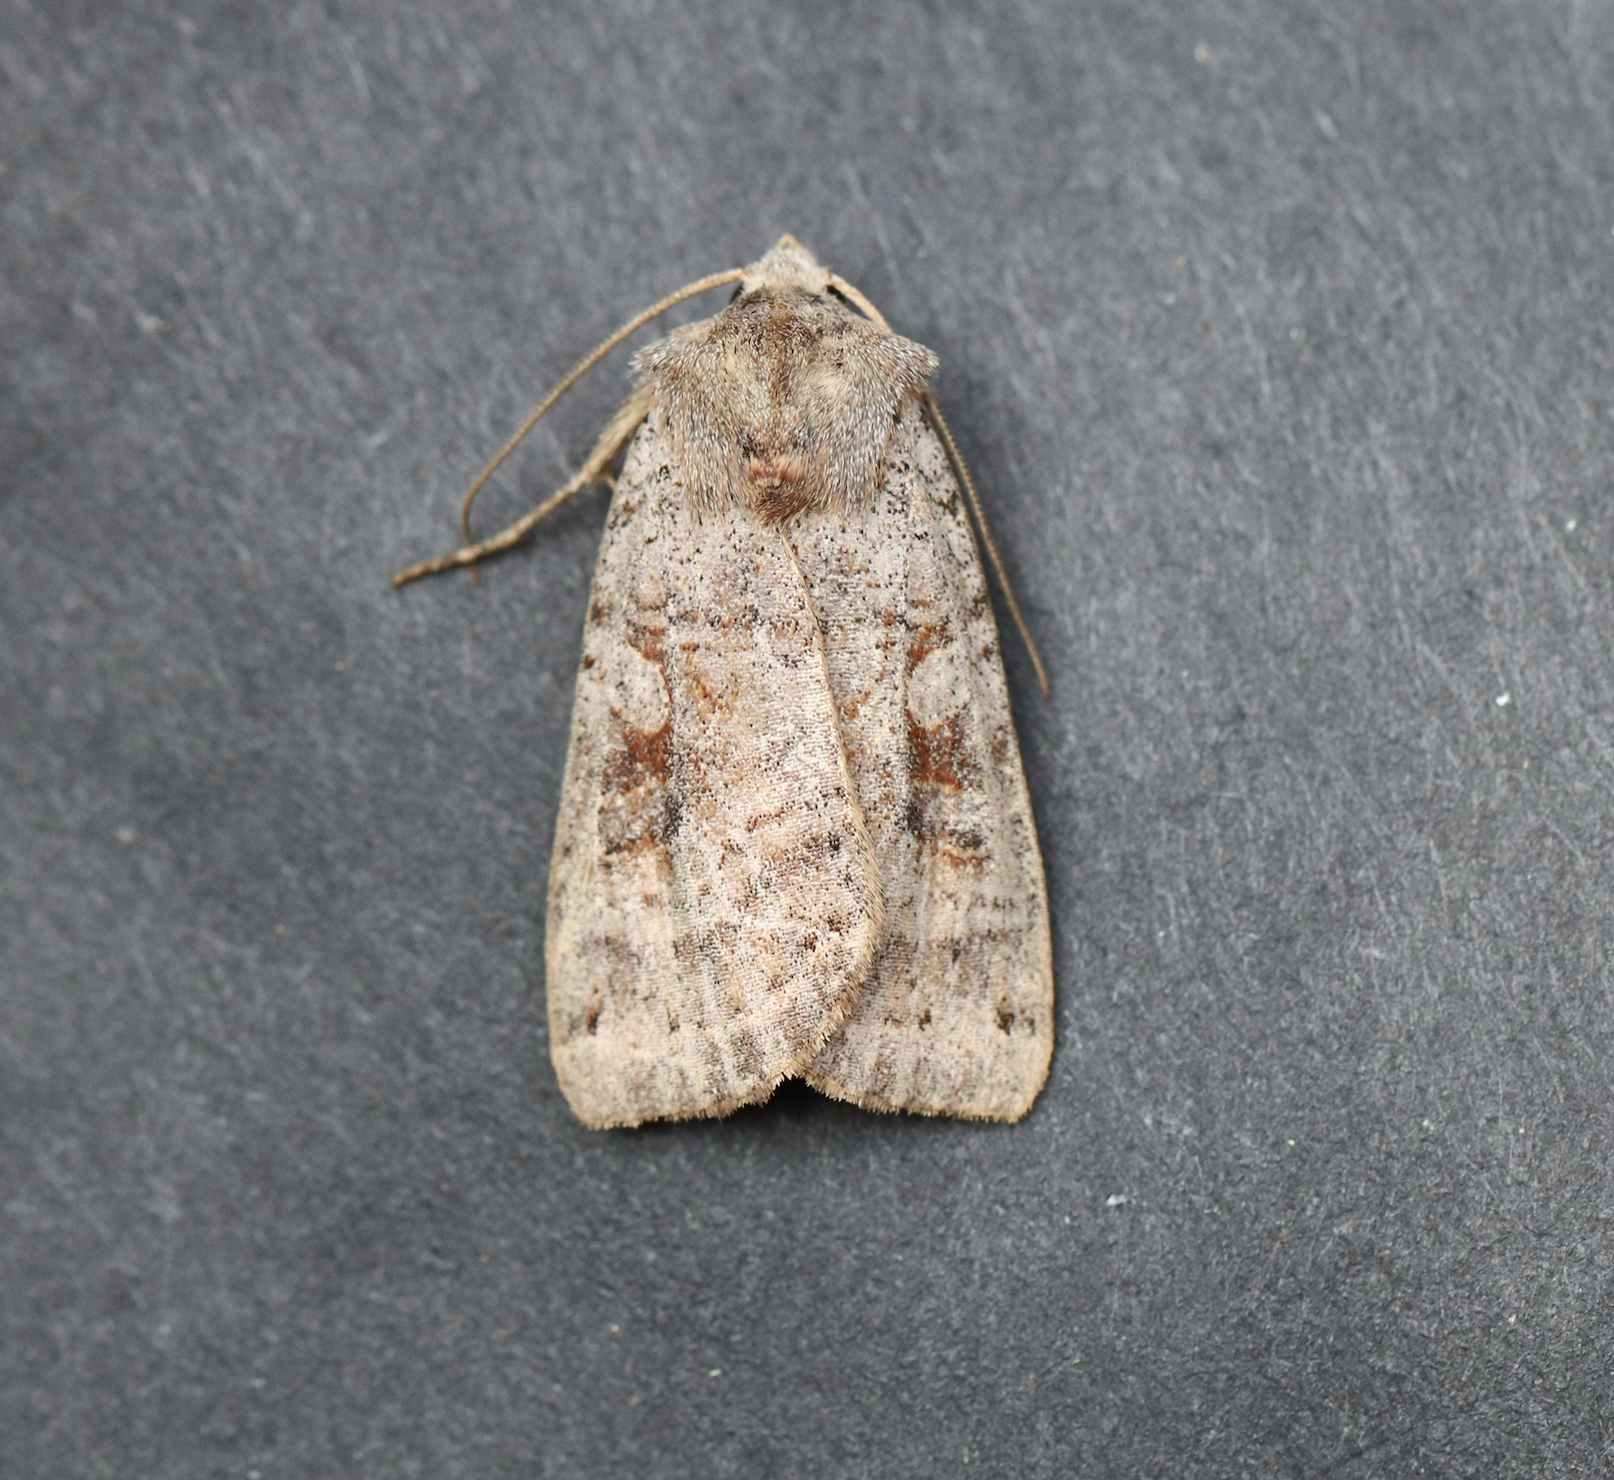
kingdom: Animalia
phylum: Arthropoda
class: Insecta
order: Lepidoptera
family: Noctuidae
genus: Xestia
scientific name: Xestia smithii
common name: Smith's dart
